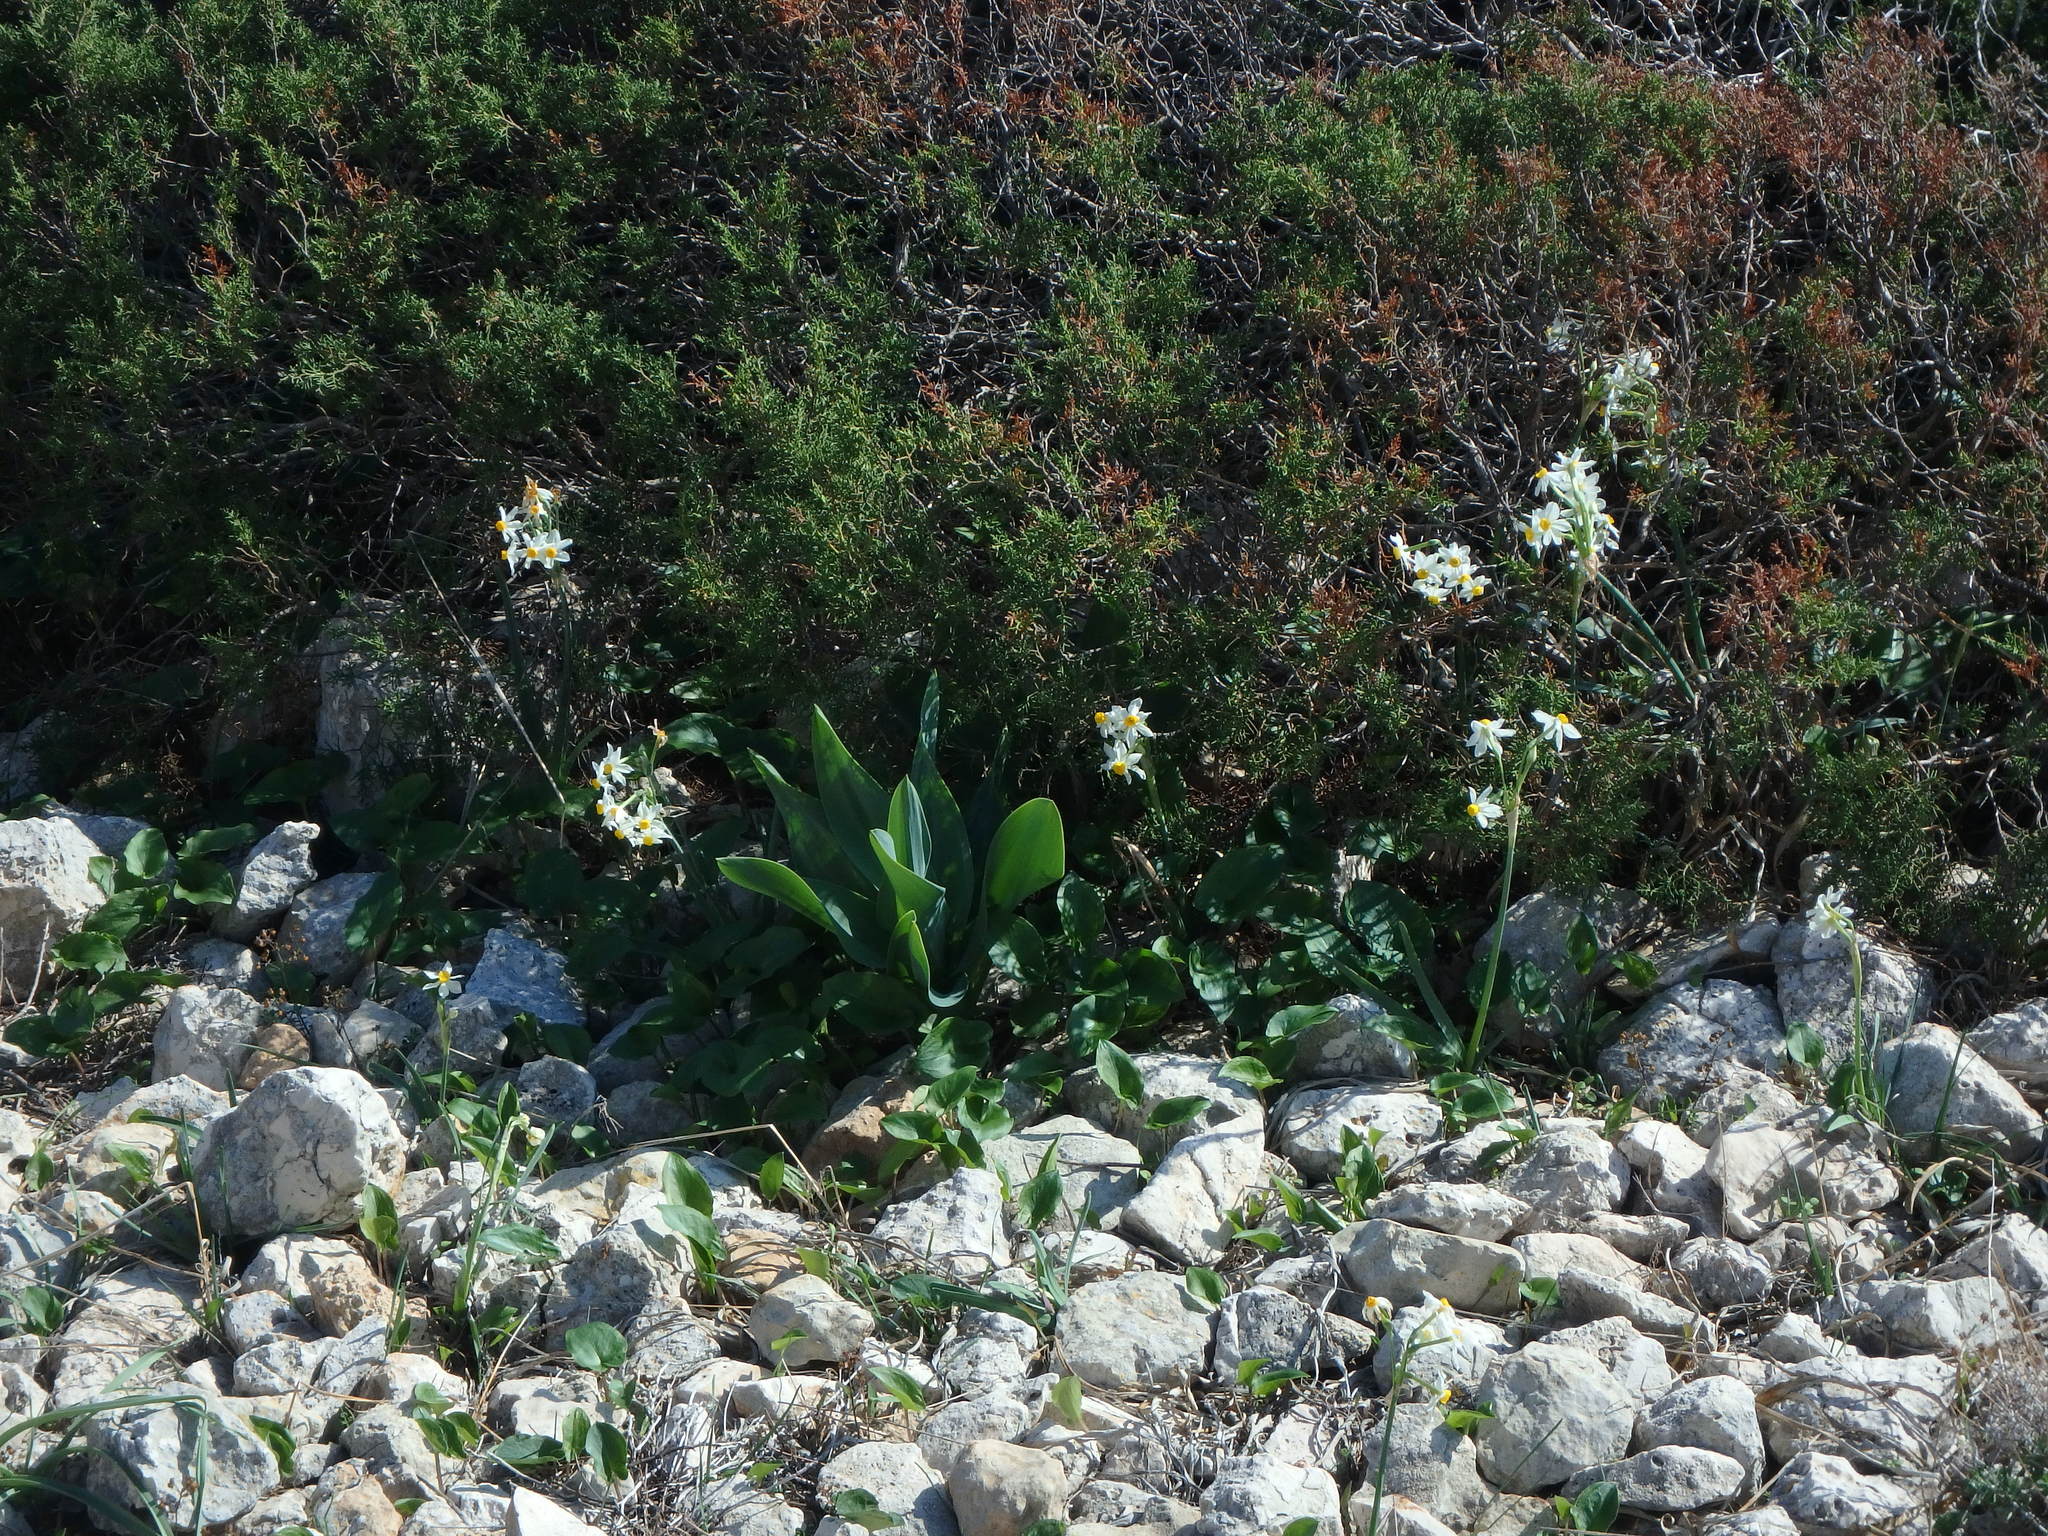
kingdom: Plantae
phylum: Tracheophyta
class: Liliopsida
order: Asparagales
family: Amaryllidaceae
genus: Narcissus
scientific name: Narcissus tazetta
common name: Bunch-flowered daffodil
